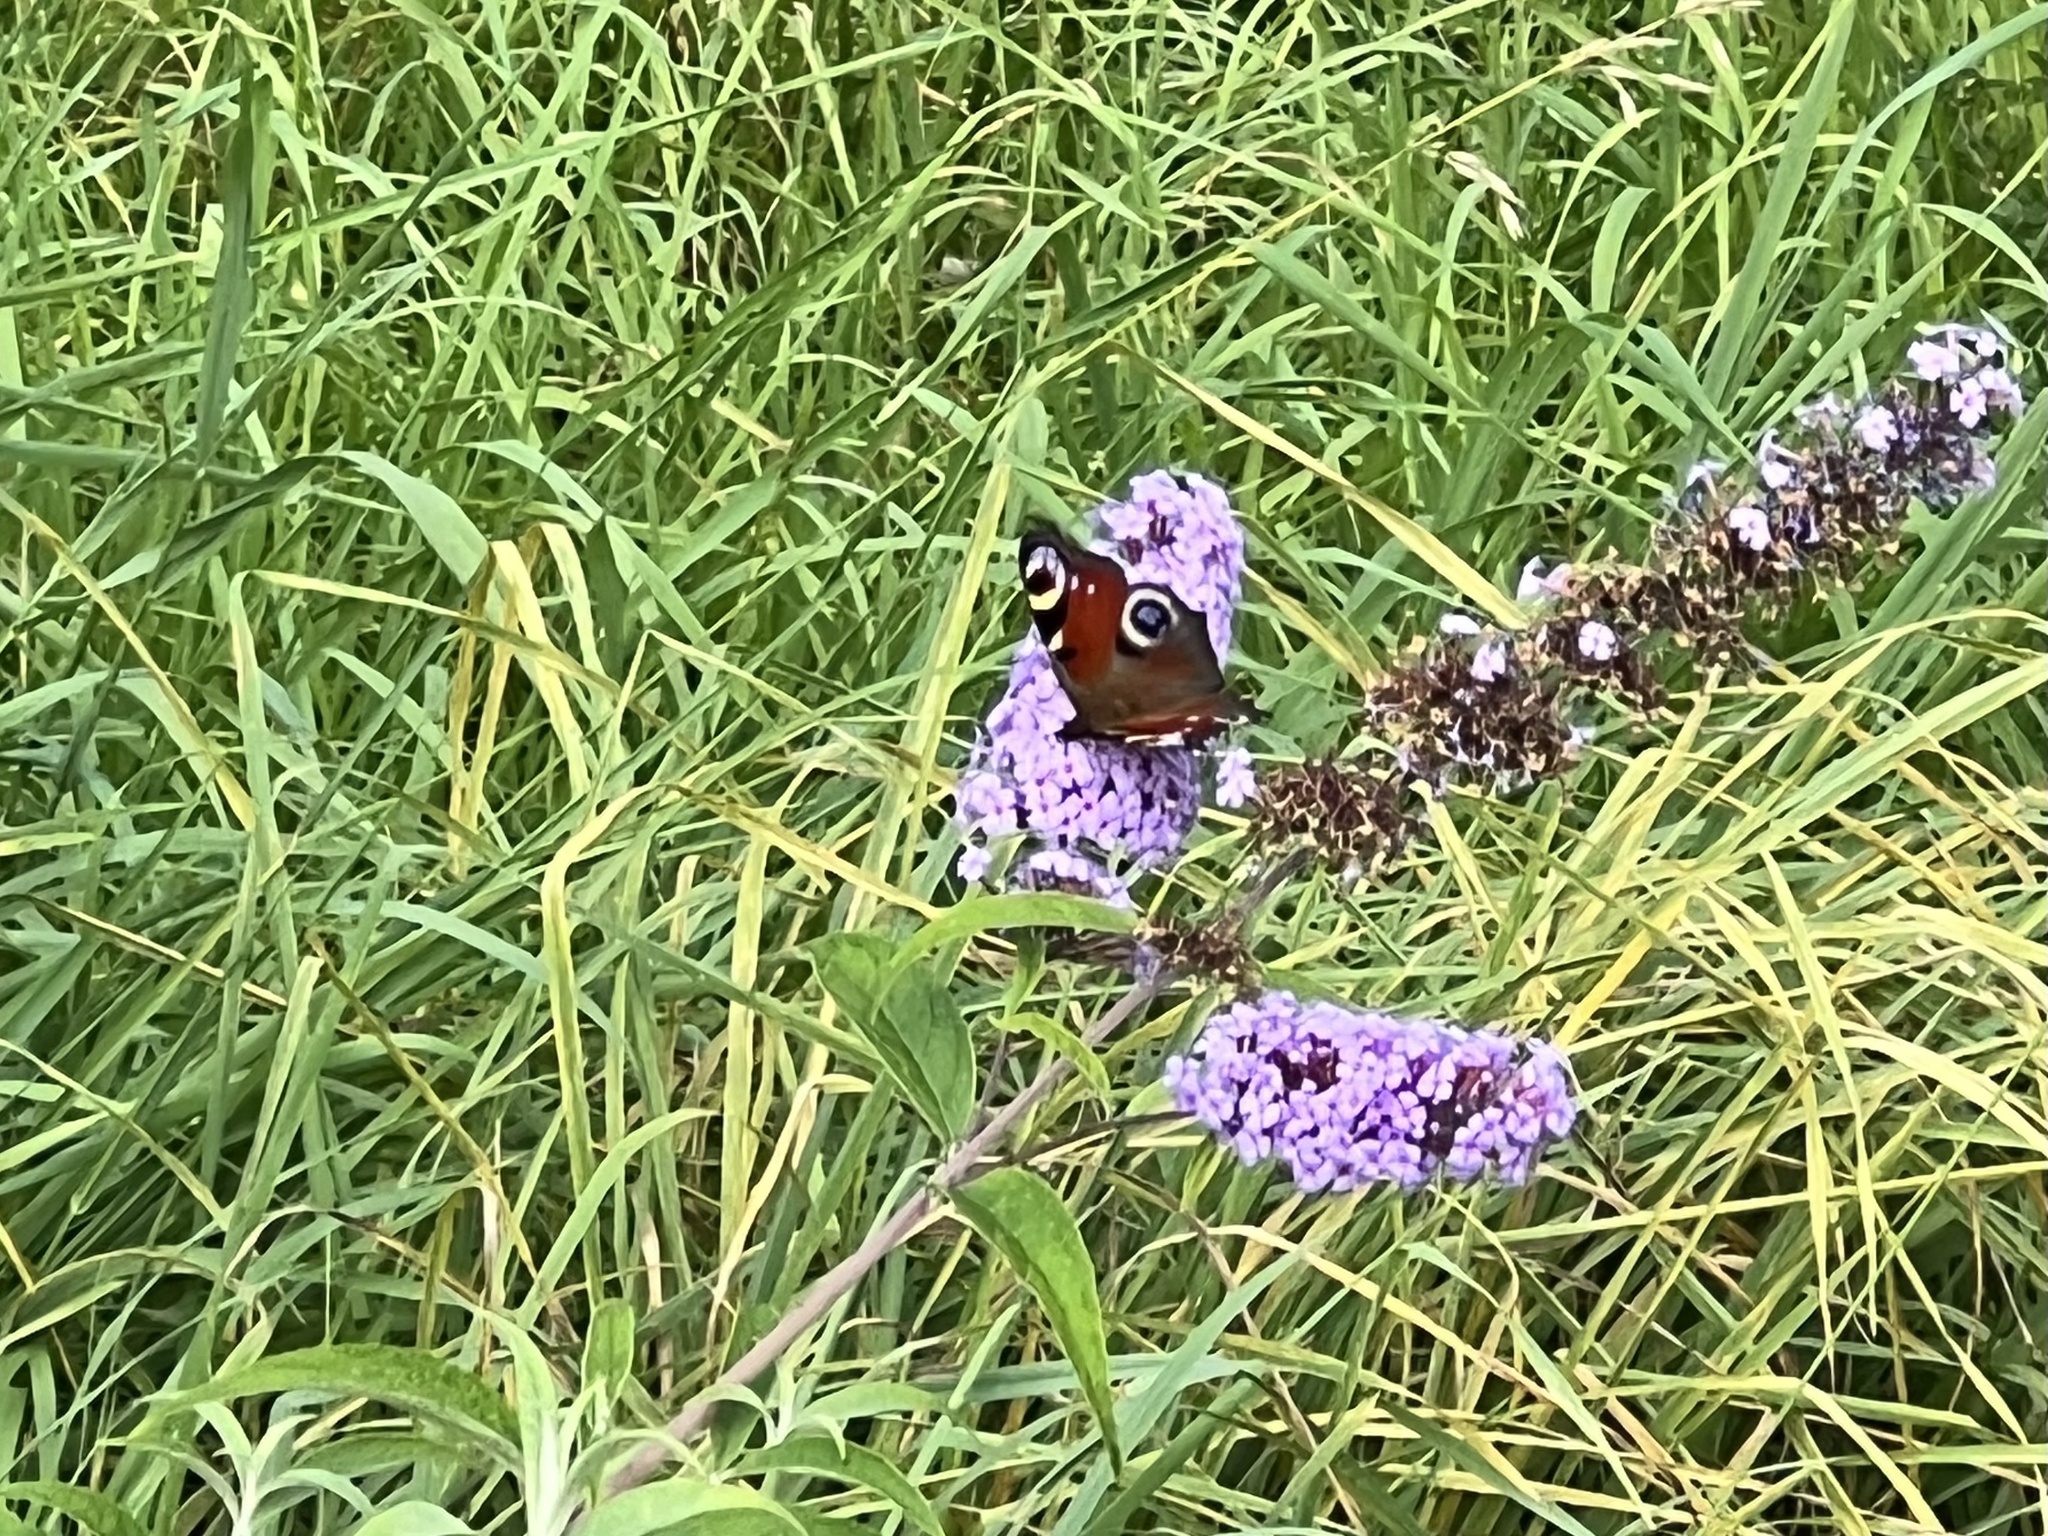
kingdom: Animalia
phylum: Arthropoda
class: Insecta
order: Lepidoptera
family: Nymphalidae
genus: Aglais
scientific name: Aglais io
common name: Peacock
